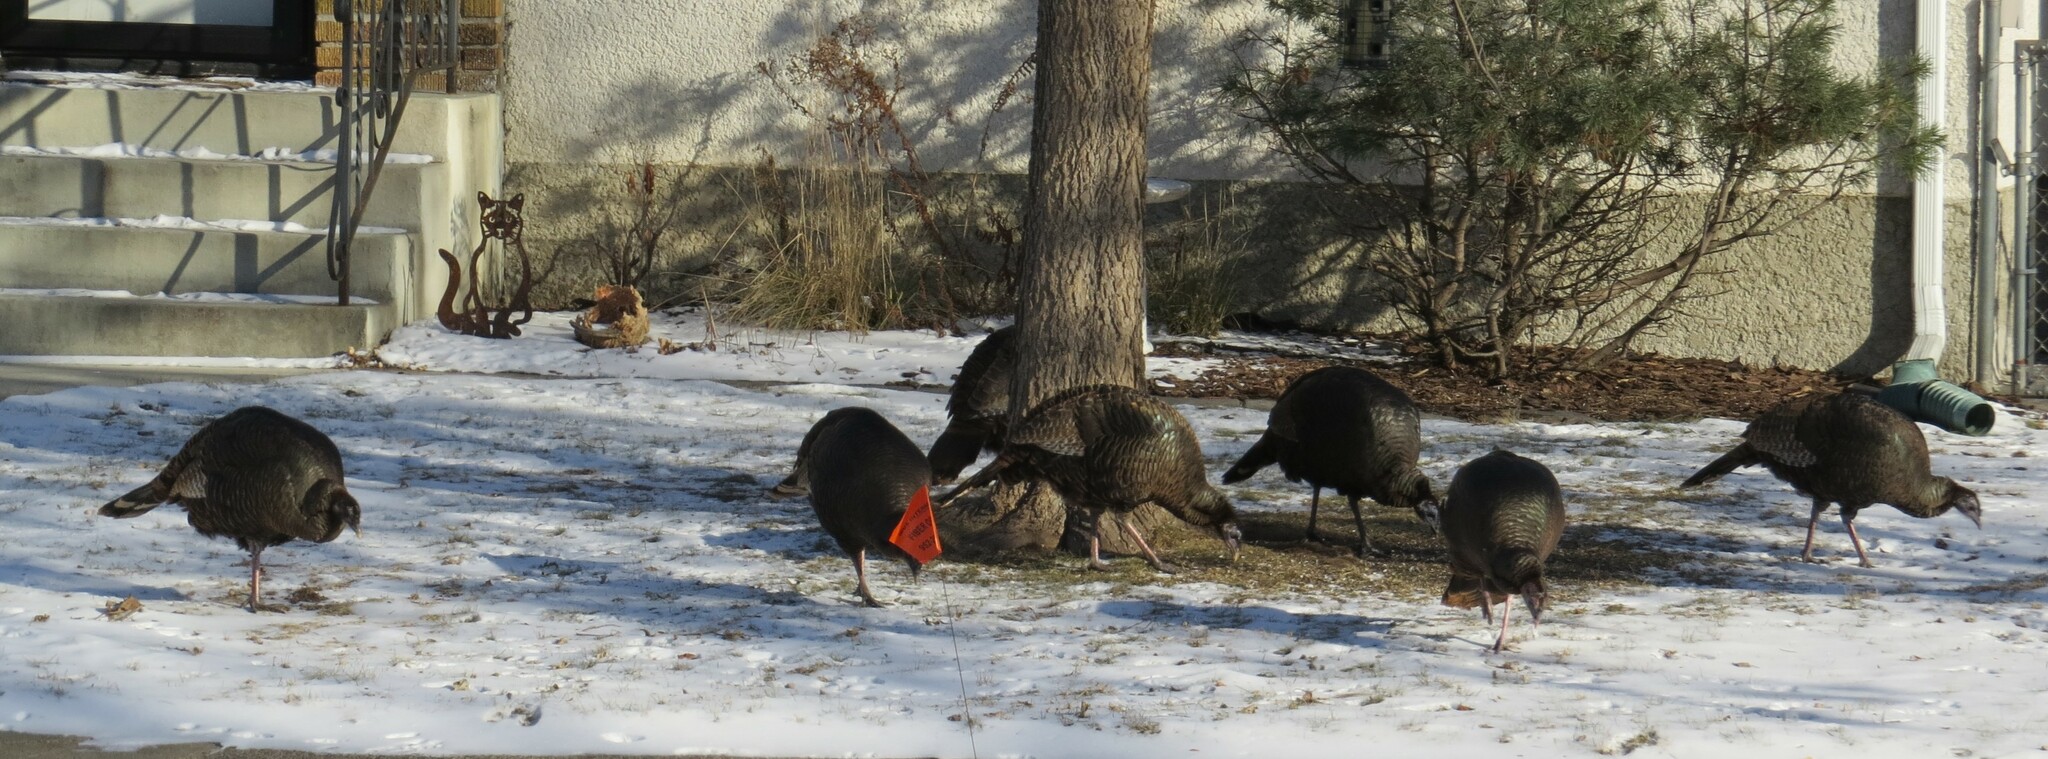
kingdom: Animalia
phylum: Chordata
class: Aves
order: Galliformes
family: Phasianidae
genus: Meleagris
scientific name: Meleagris gallopavo
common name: Wild turkey
